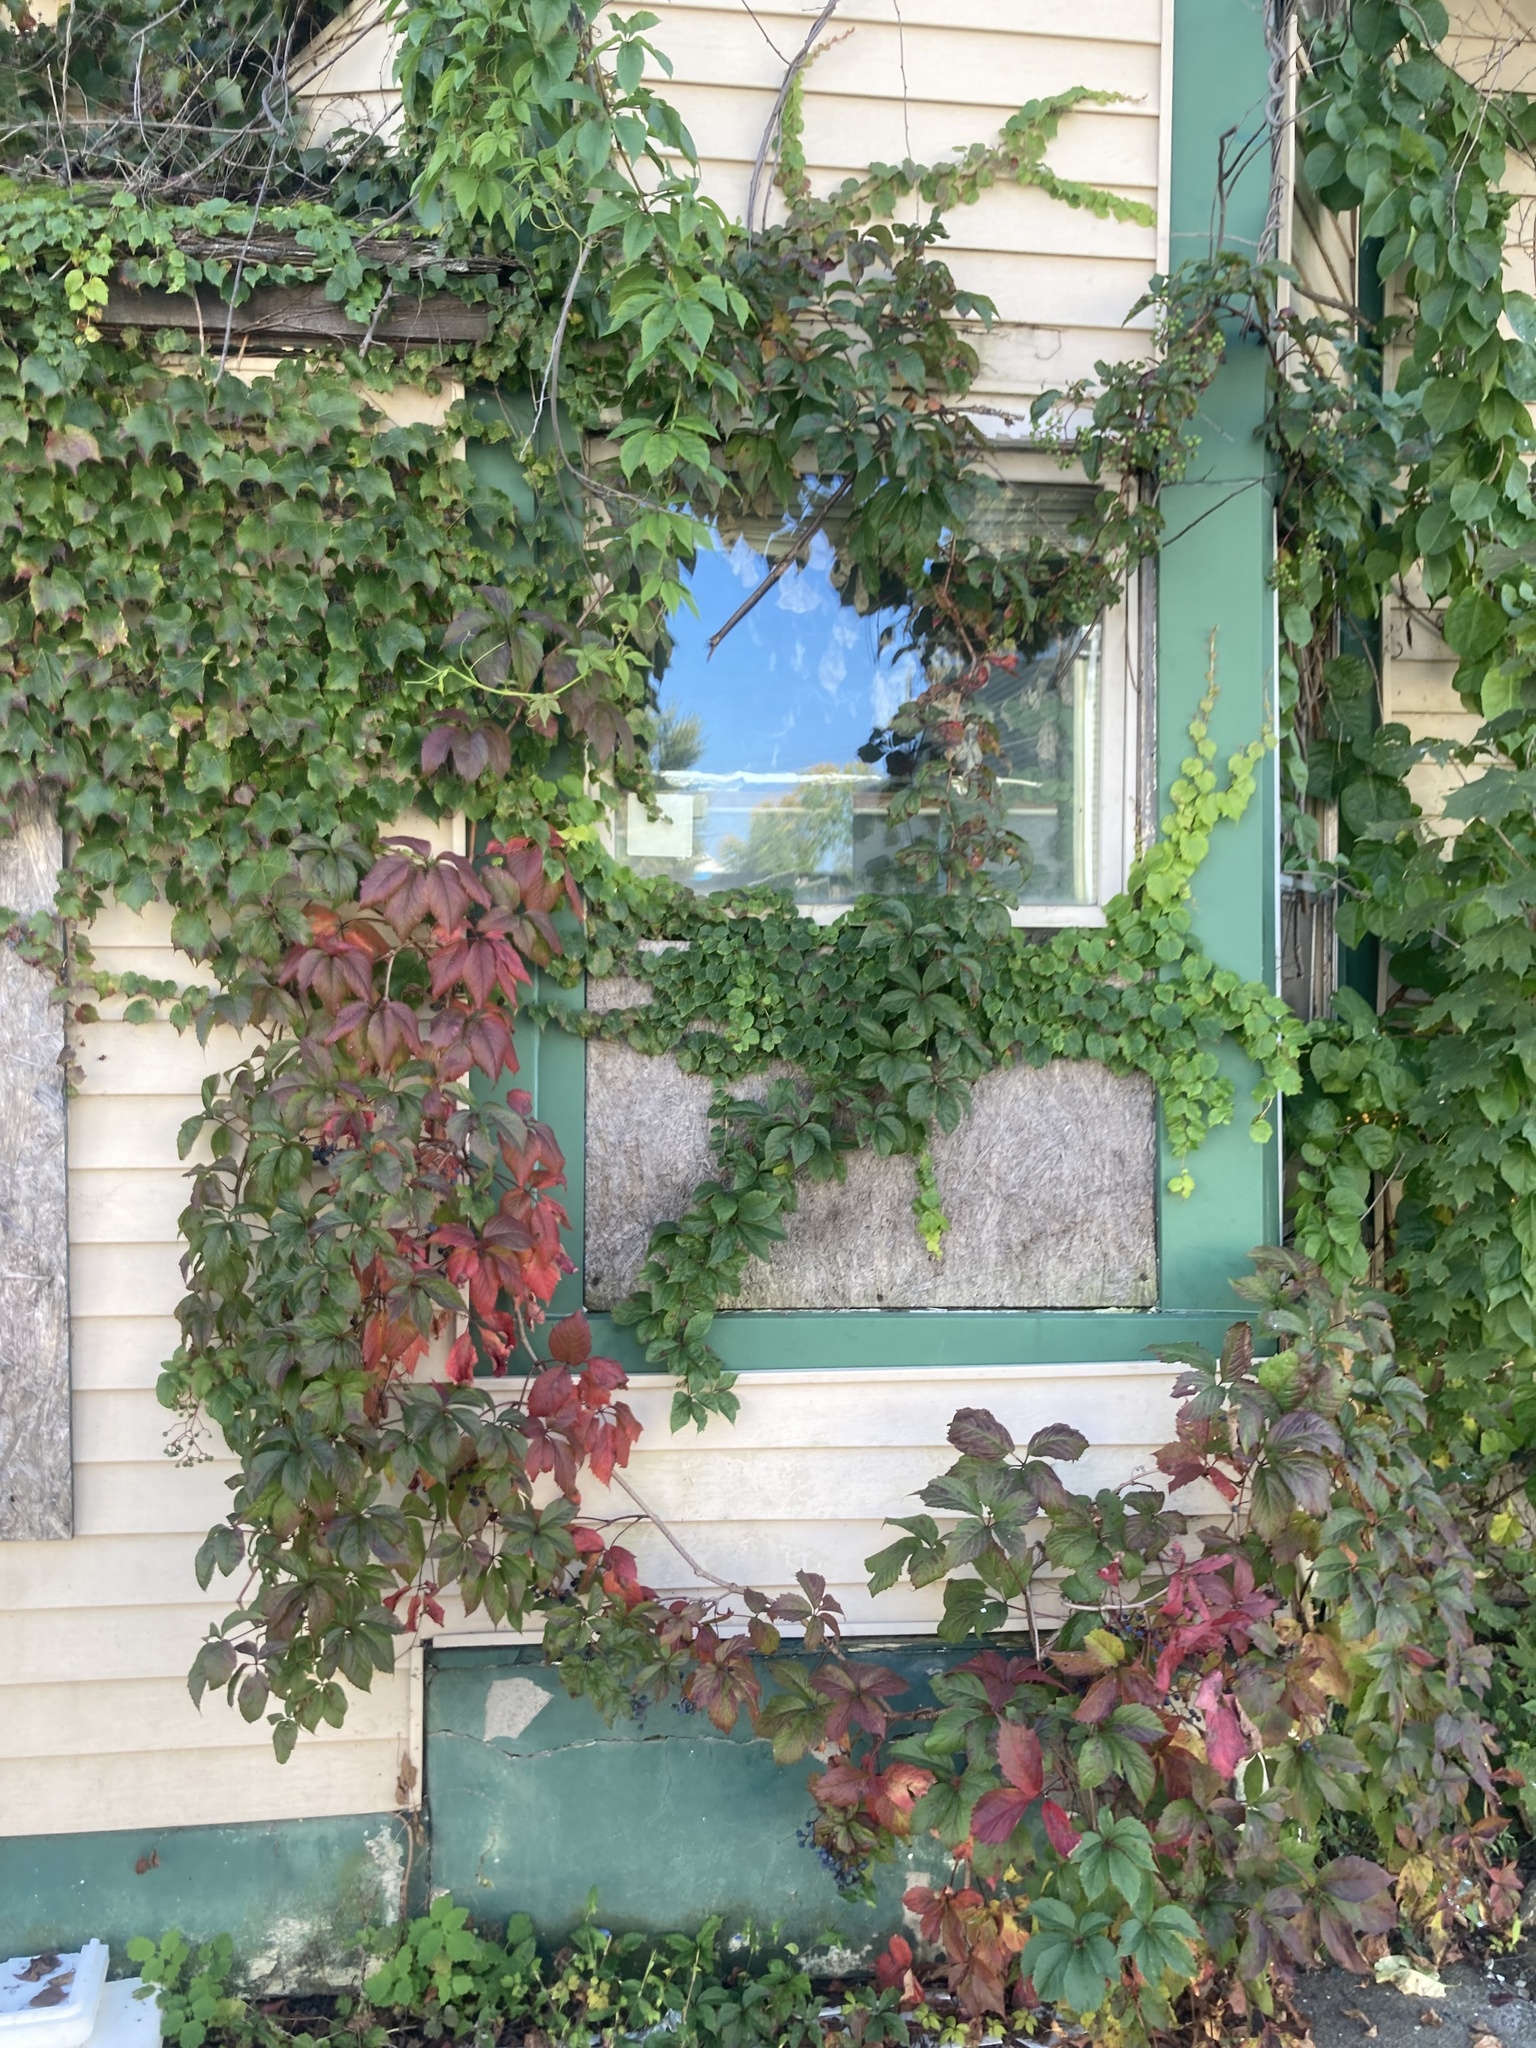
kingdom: Plantae
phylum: Tracheophyta
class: Magnoliopsida
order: Vitales
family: Vitaceae
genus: Parthenocissus
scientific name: Parthenocissus quinquefolia
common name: Virginia-creeper
